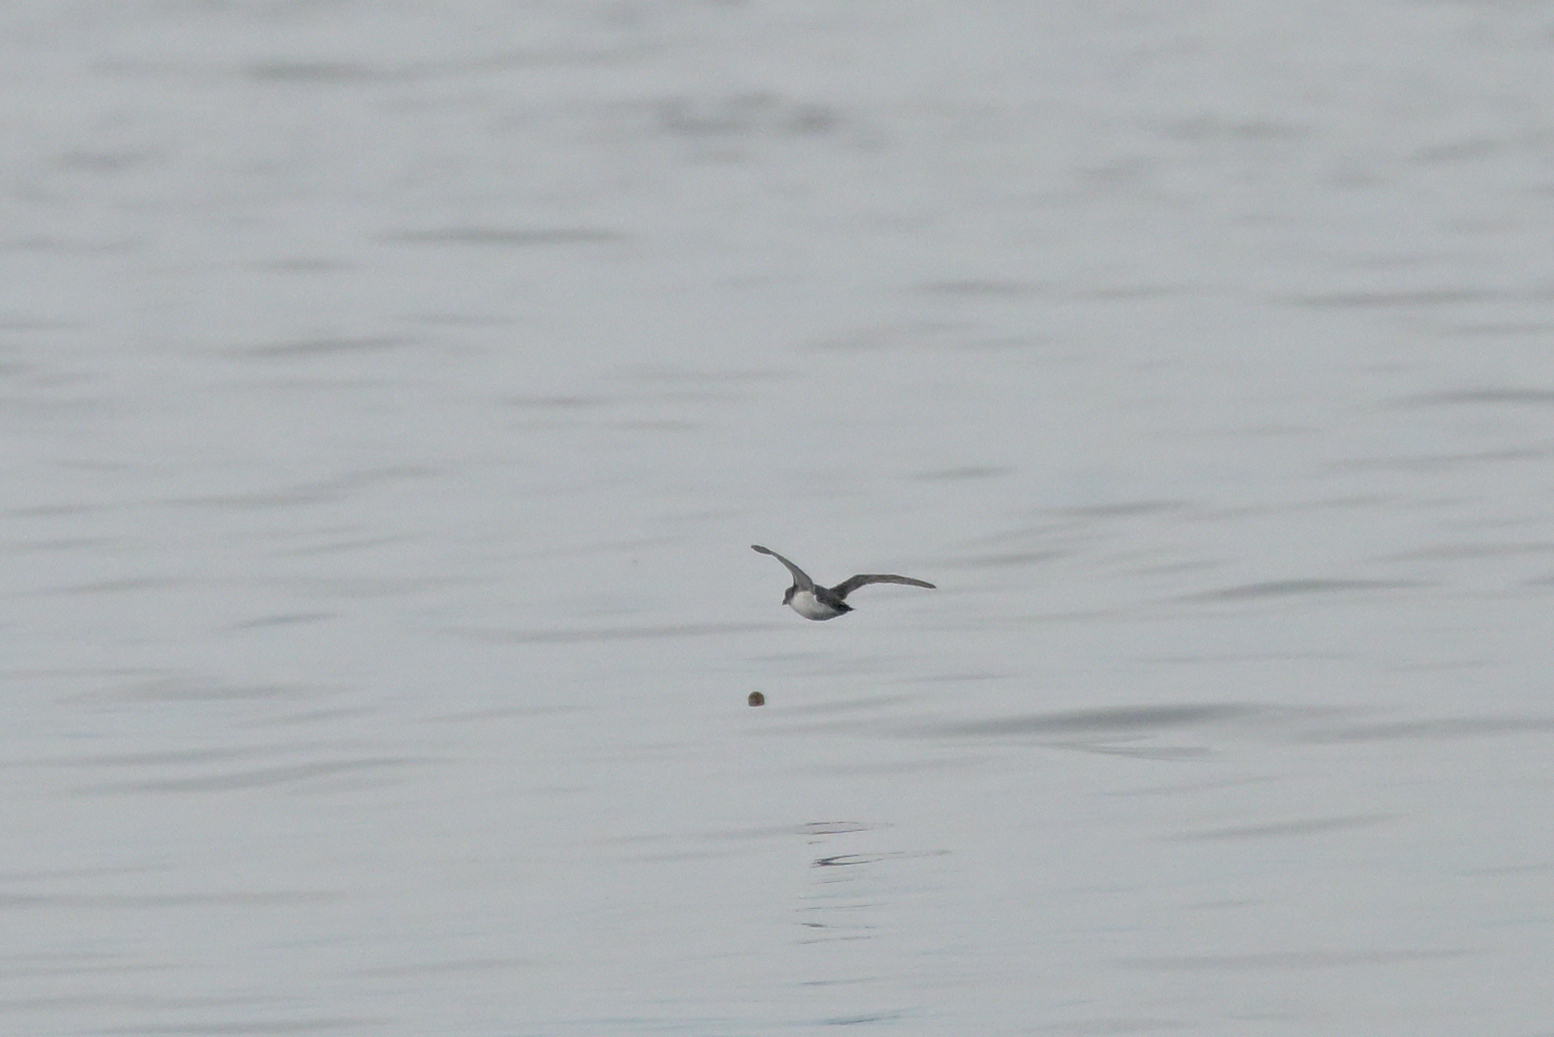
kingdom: Animalia
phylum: Chordata
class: Aves
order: Procellariiformes
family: Pelecanoididae
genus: Pelecanoides
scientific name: Pelecanoides urinatrix
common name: Common diving-petrel
